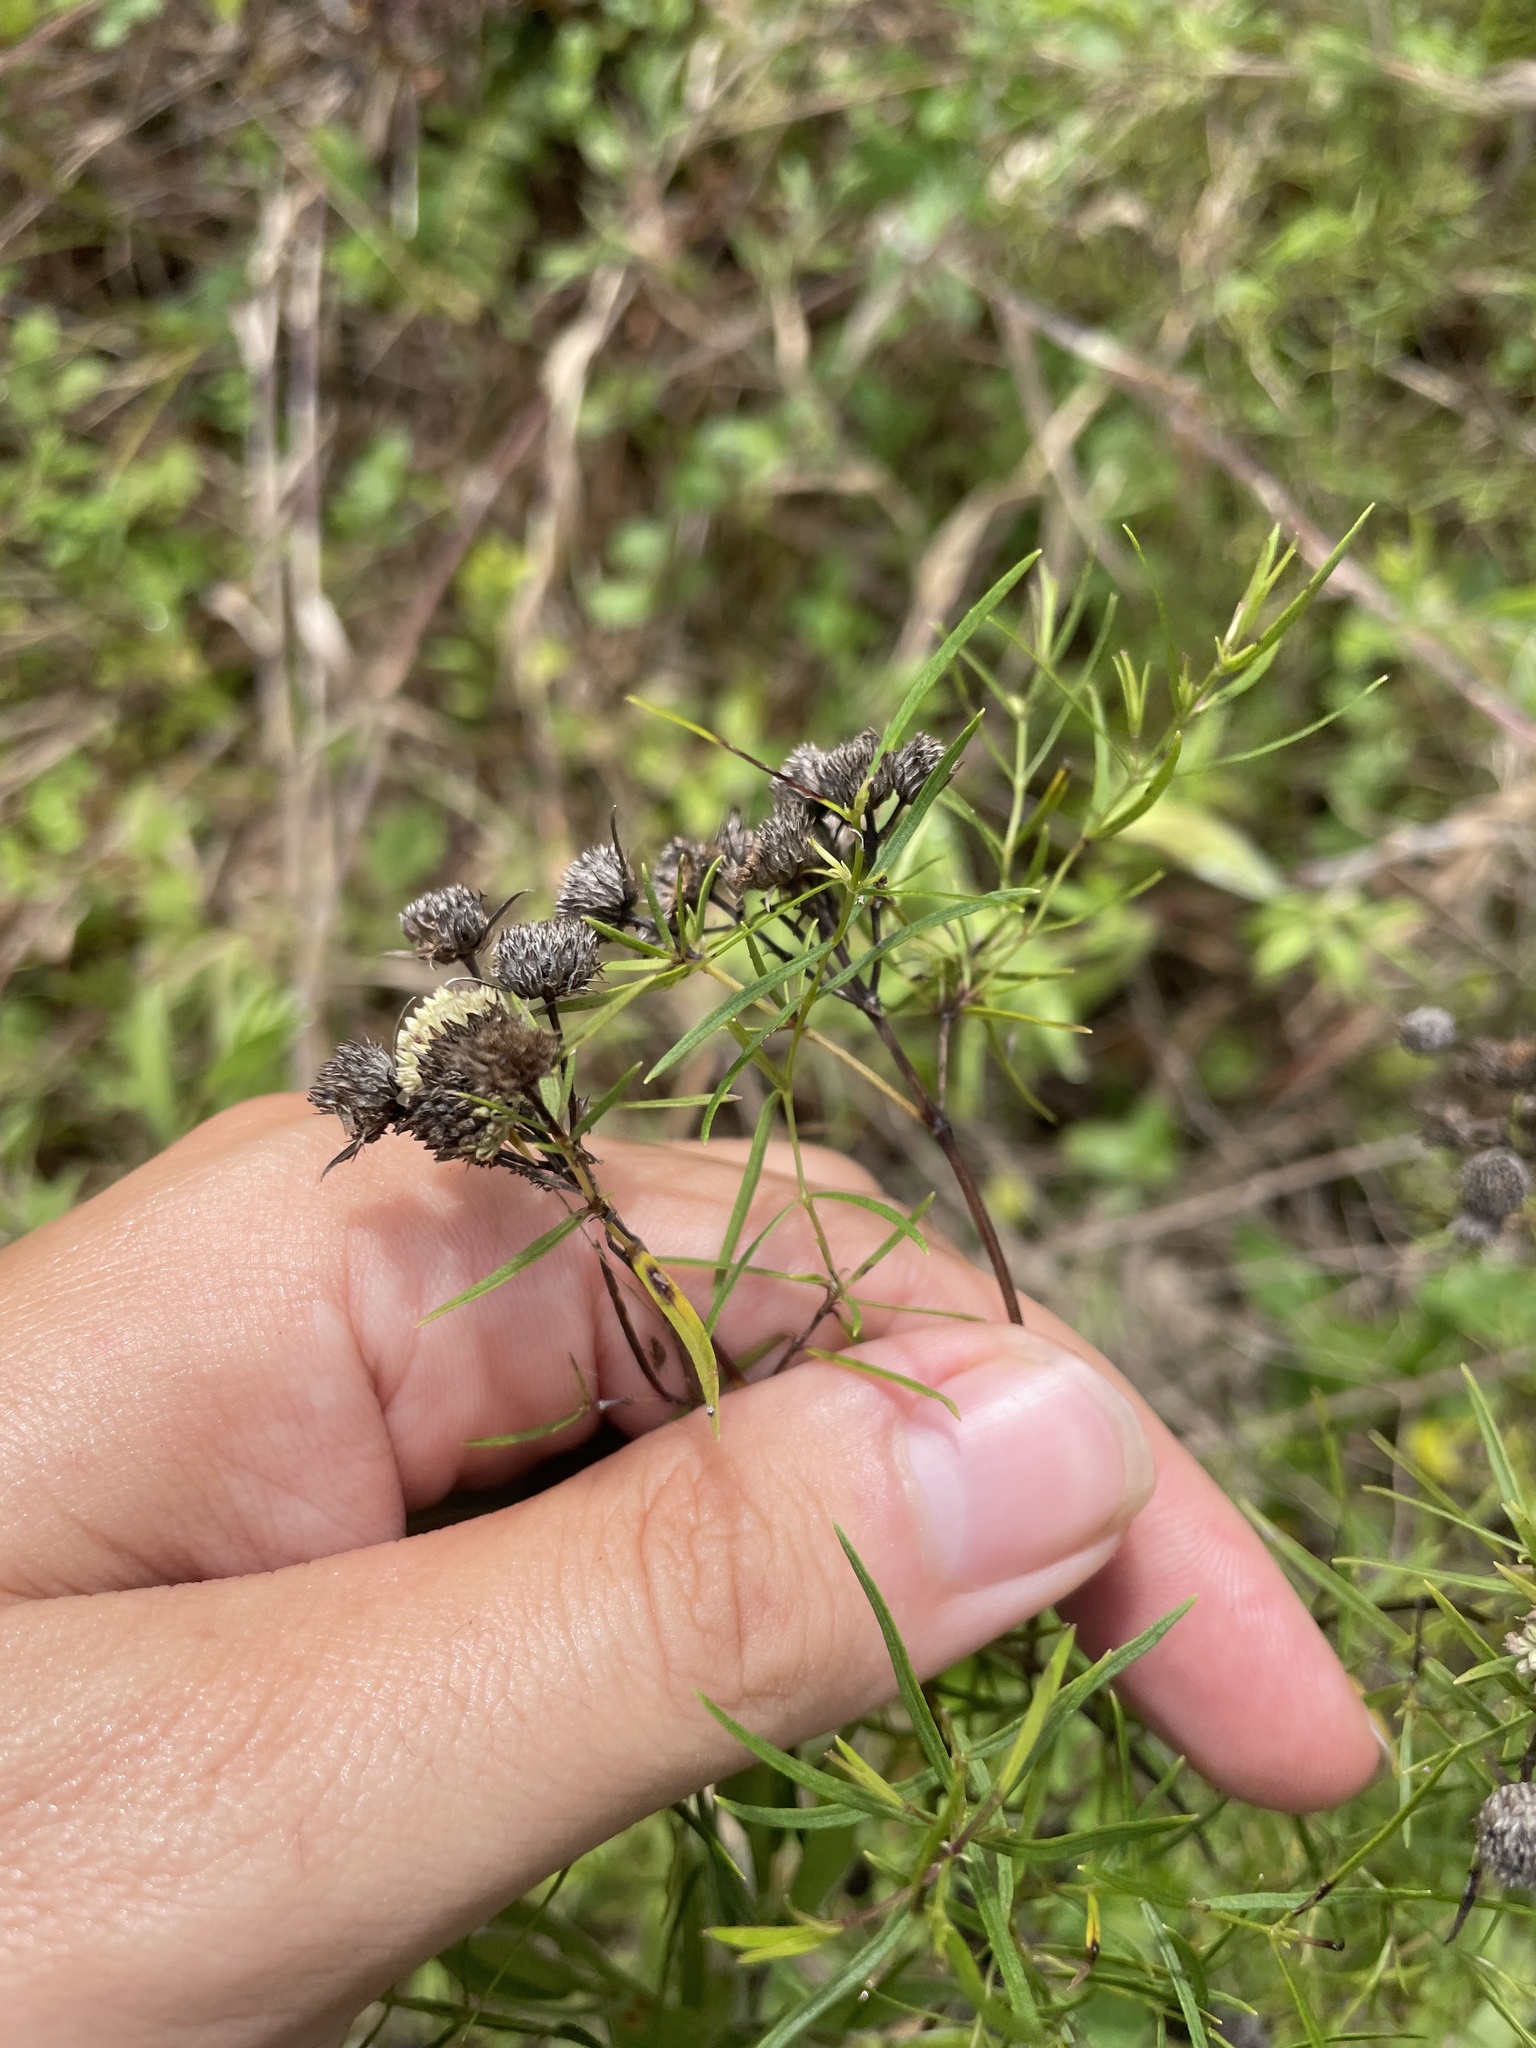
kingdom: Plantae
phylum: Tracheophyta
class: Magnoliopsida
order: Lamiales
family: Lamiaceae
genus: Pycnanthemum
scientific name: Pycnanthemum tenuifolium
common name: Narrow-leaf mountain-mint
